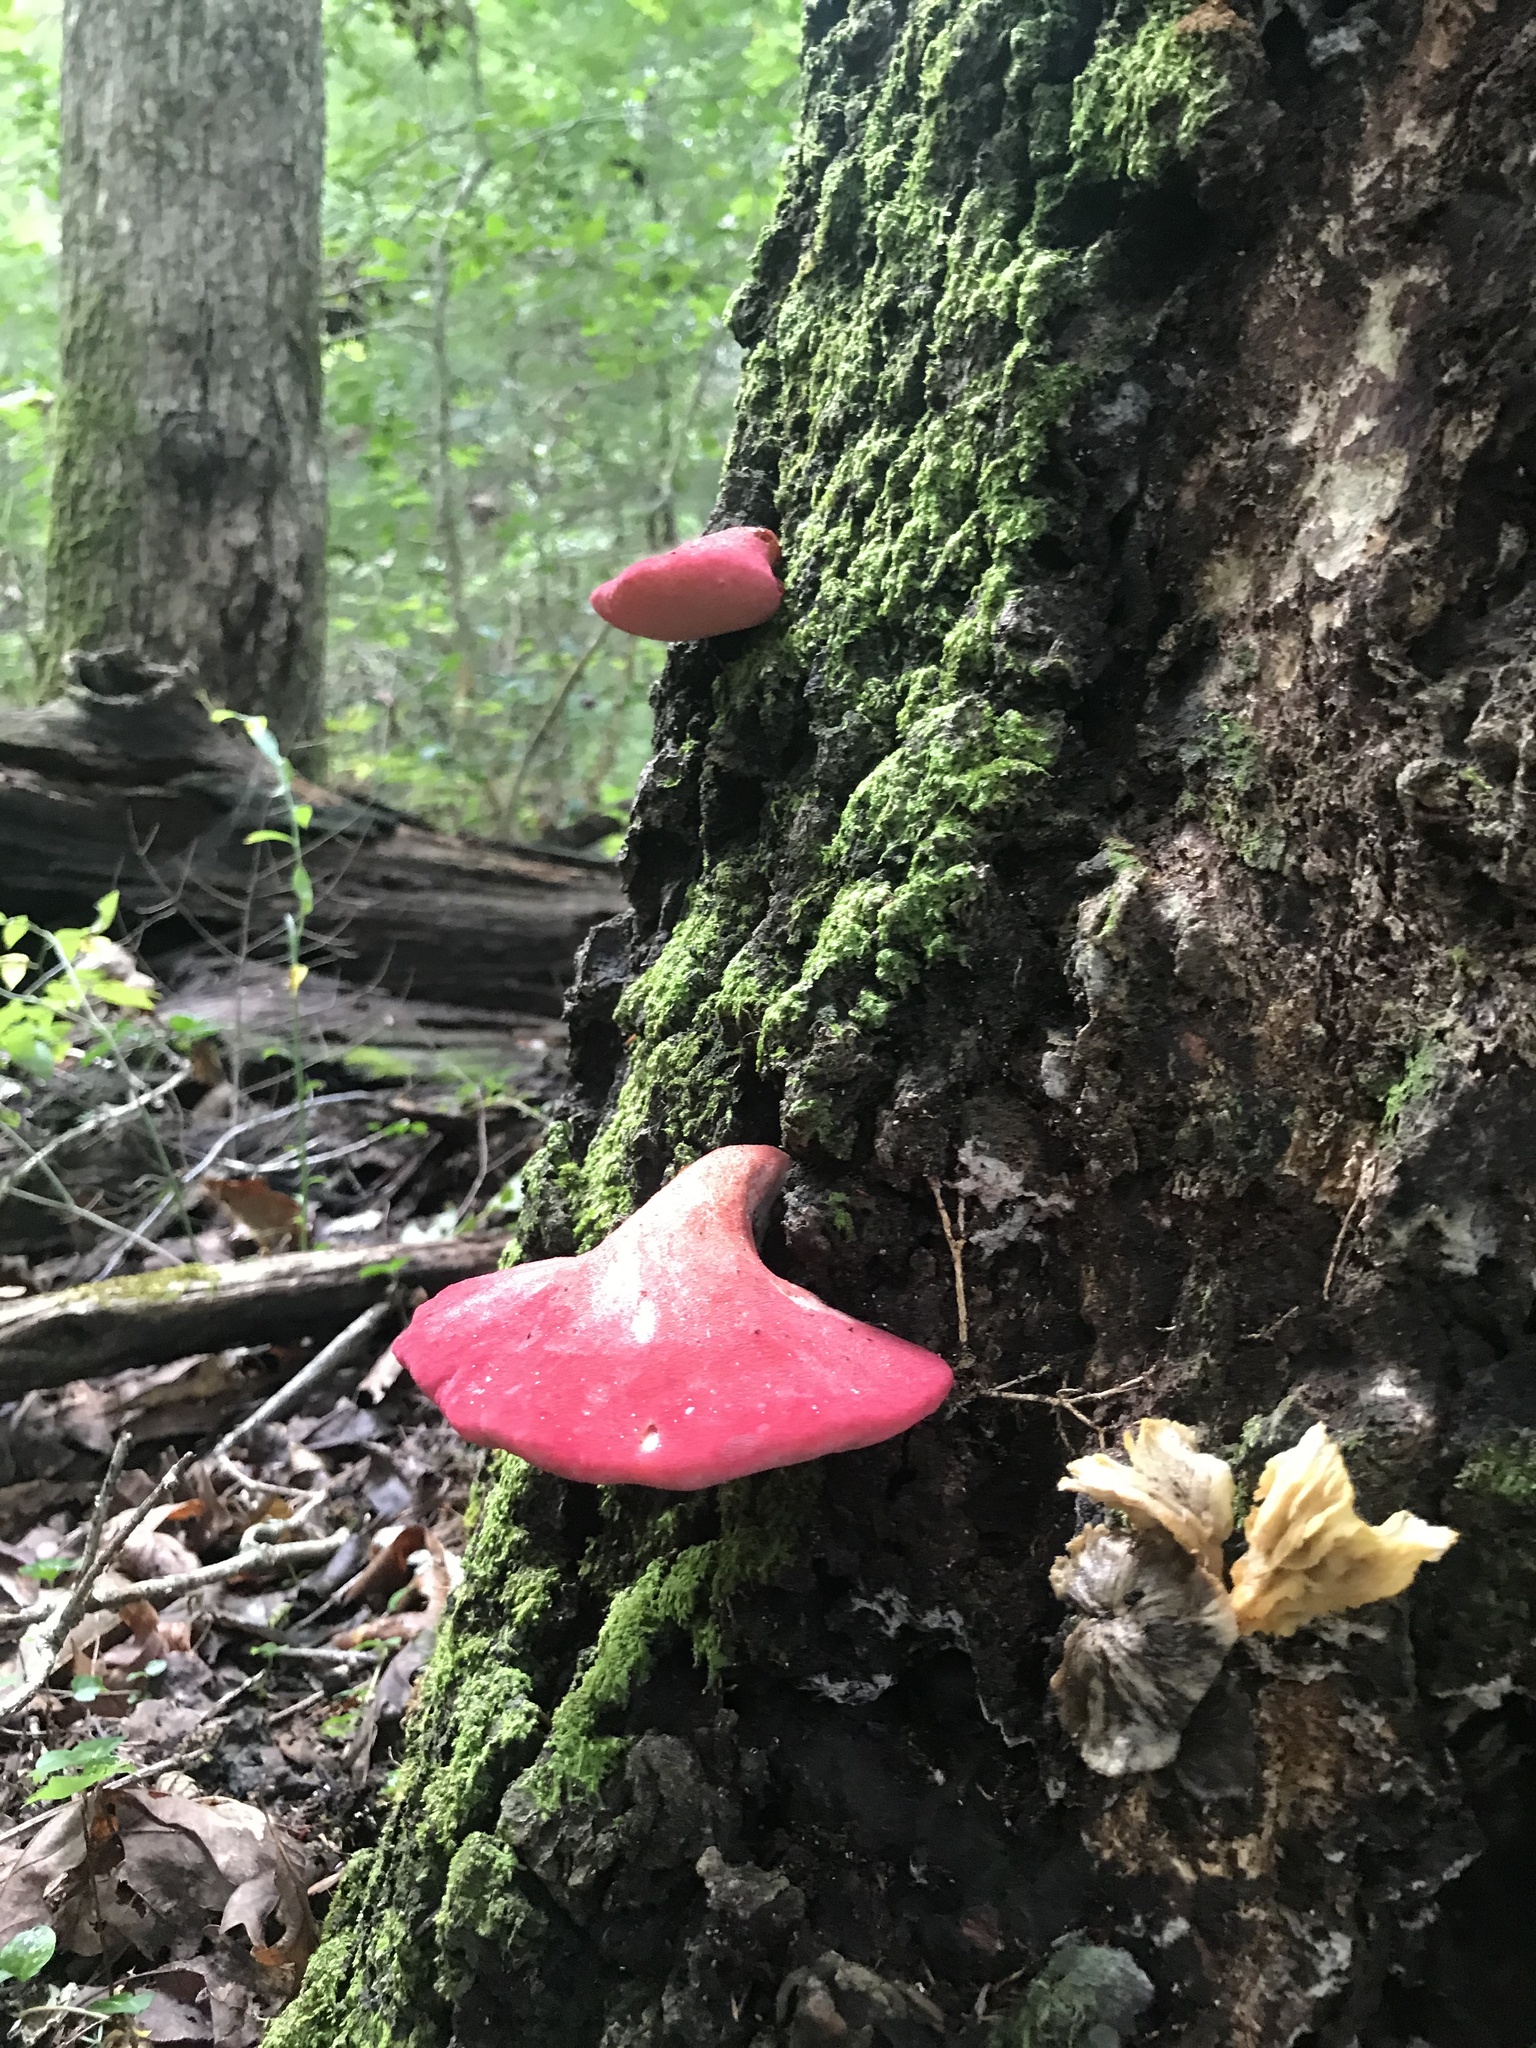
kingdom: Fungi
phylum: Basidiomycota
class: Agaricomycetes
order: Agaricales
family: Fistulinaceae
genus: Fistulina
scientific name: Fistulina hepatica
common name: Beef-steak fungus
